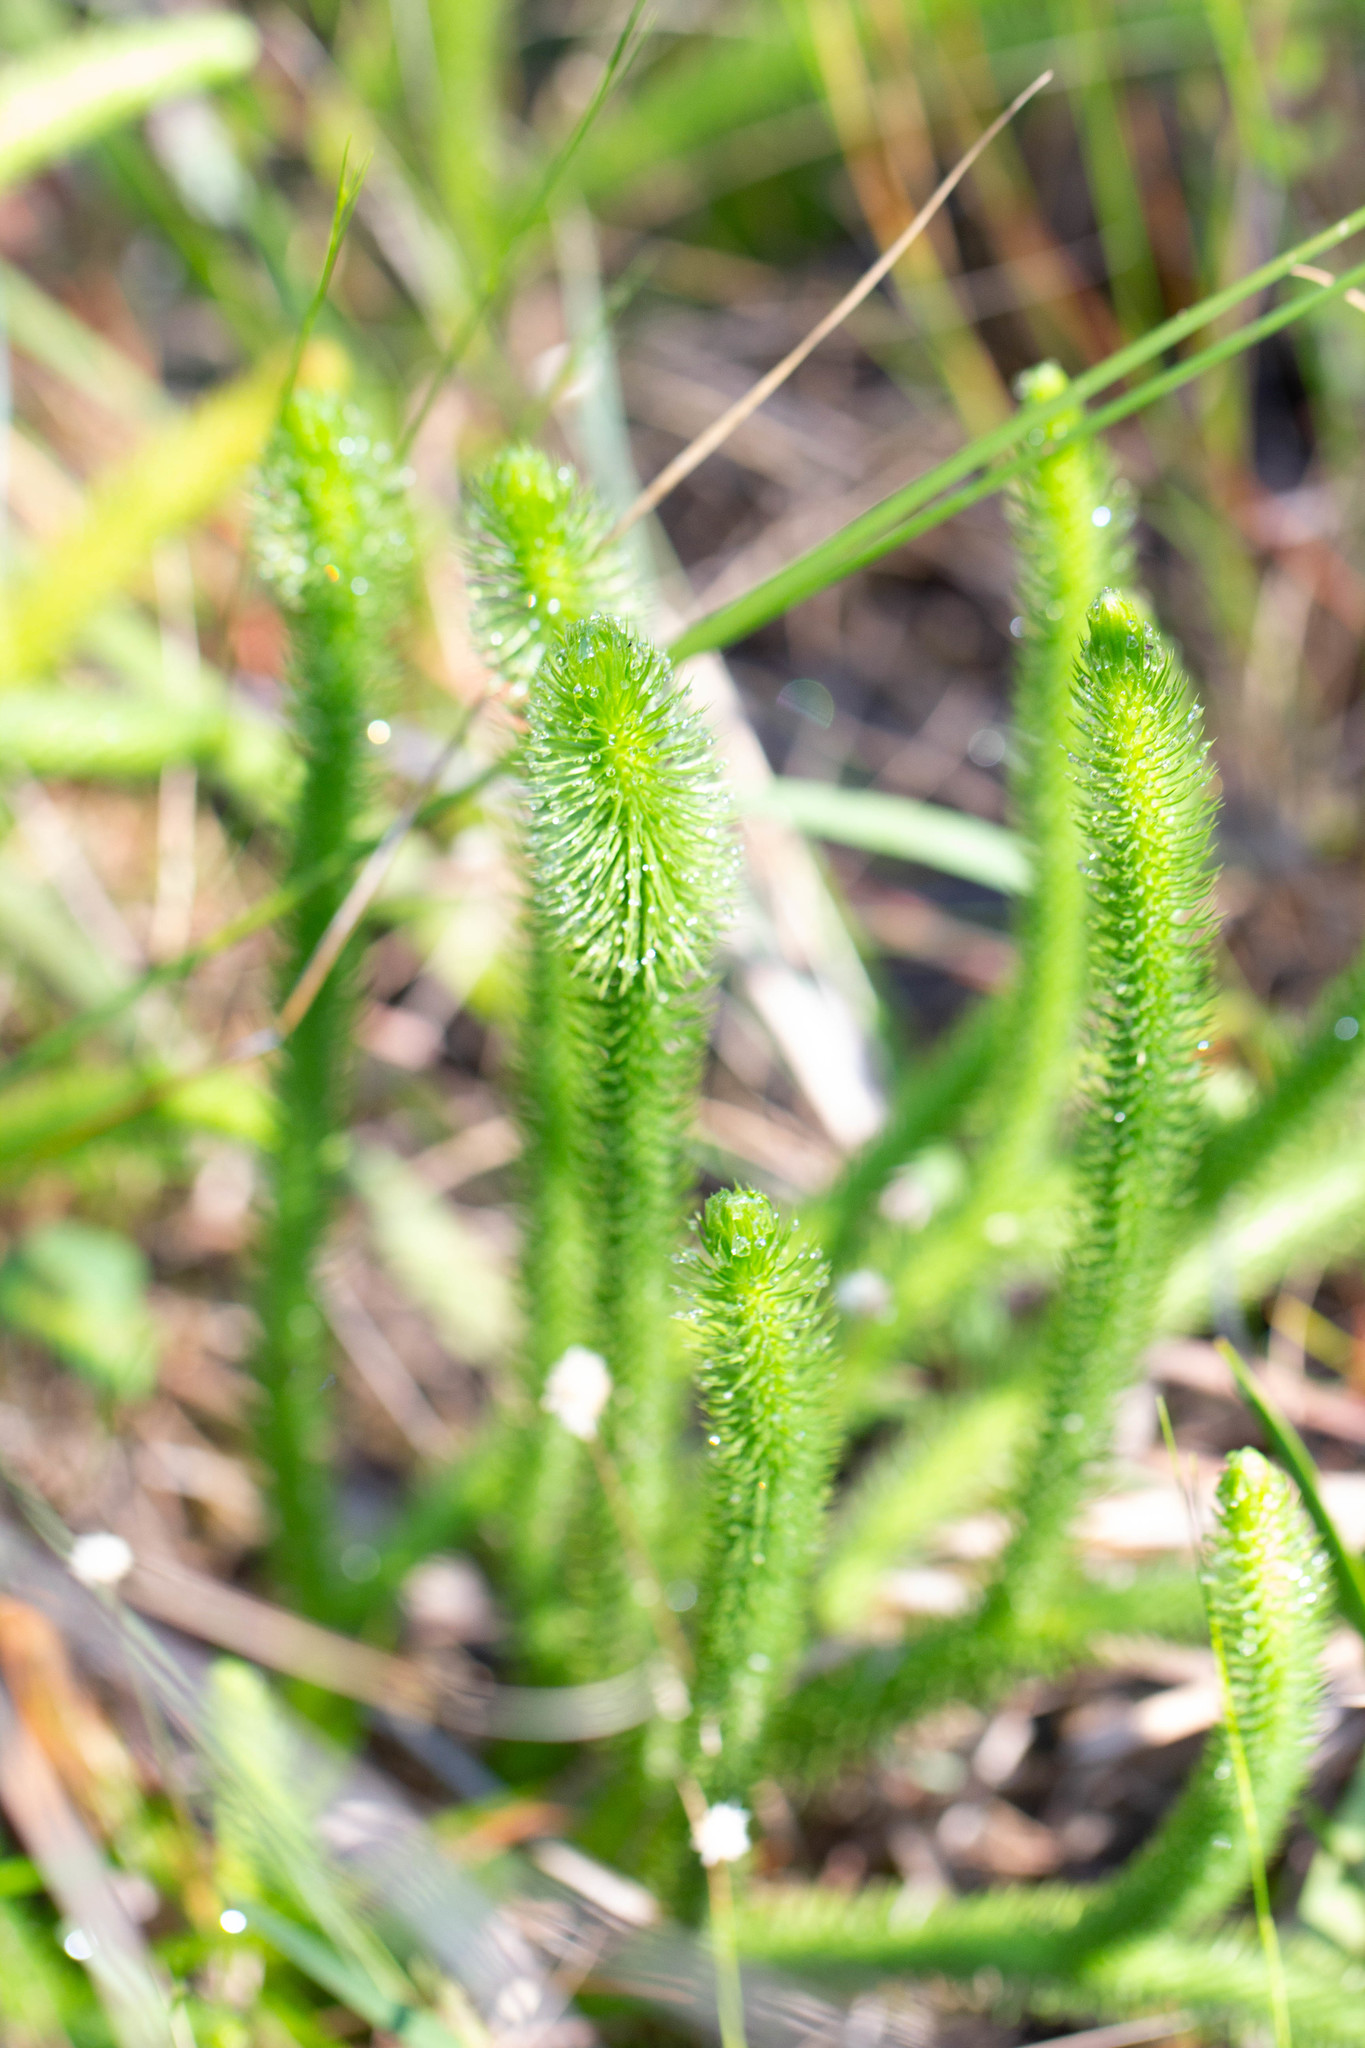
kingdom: Plantae
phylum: Tracheophyta
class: Lycopodiopsida
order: Lycopodiales
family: Lycopodiaceae
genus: Lycopodiella
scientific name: Lycopodiella alopecuroides
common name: Foxtail clubmoss
